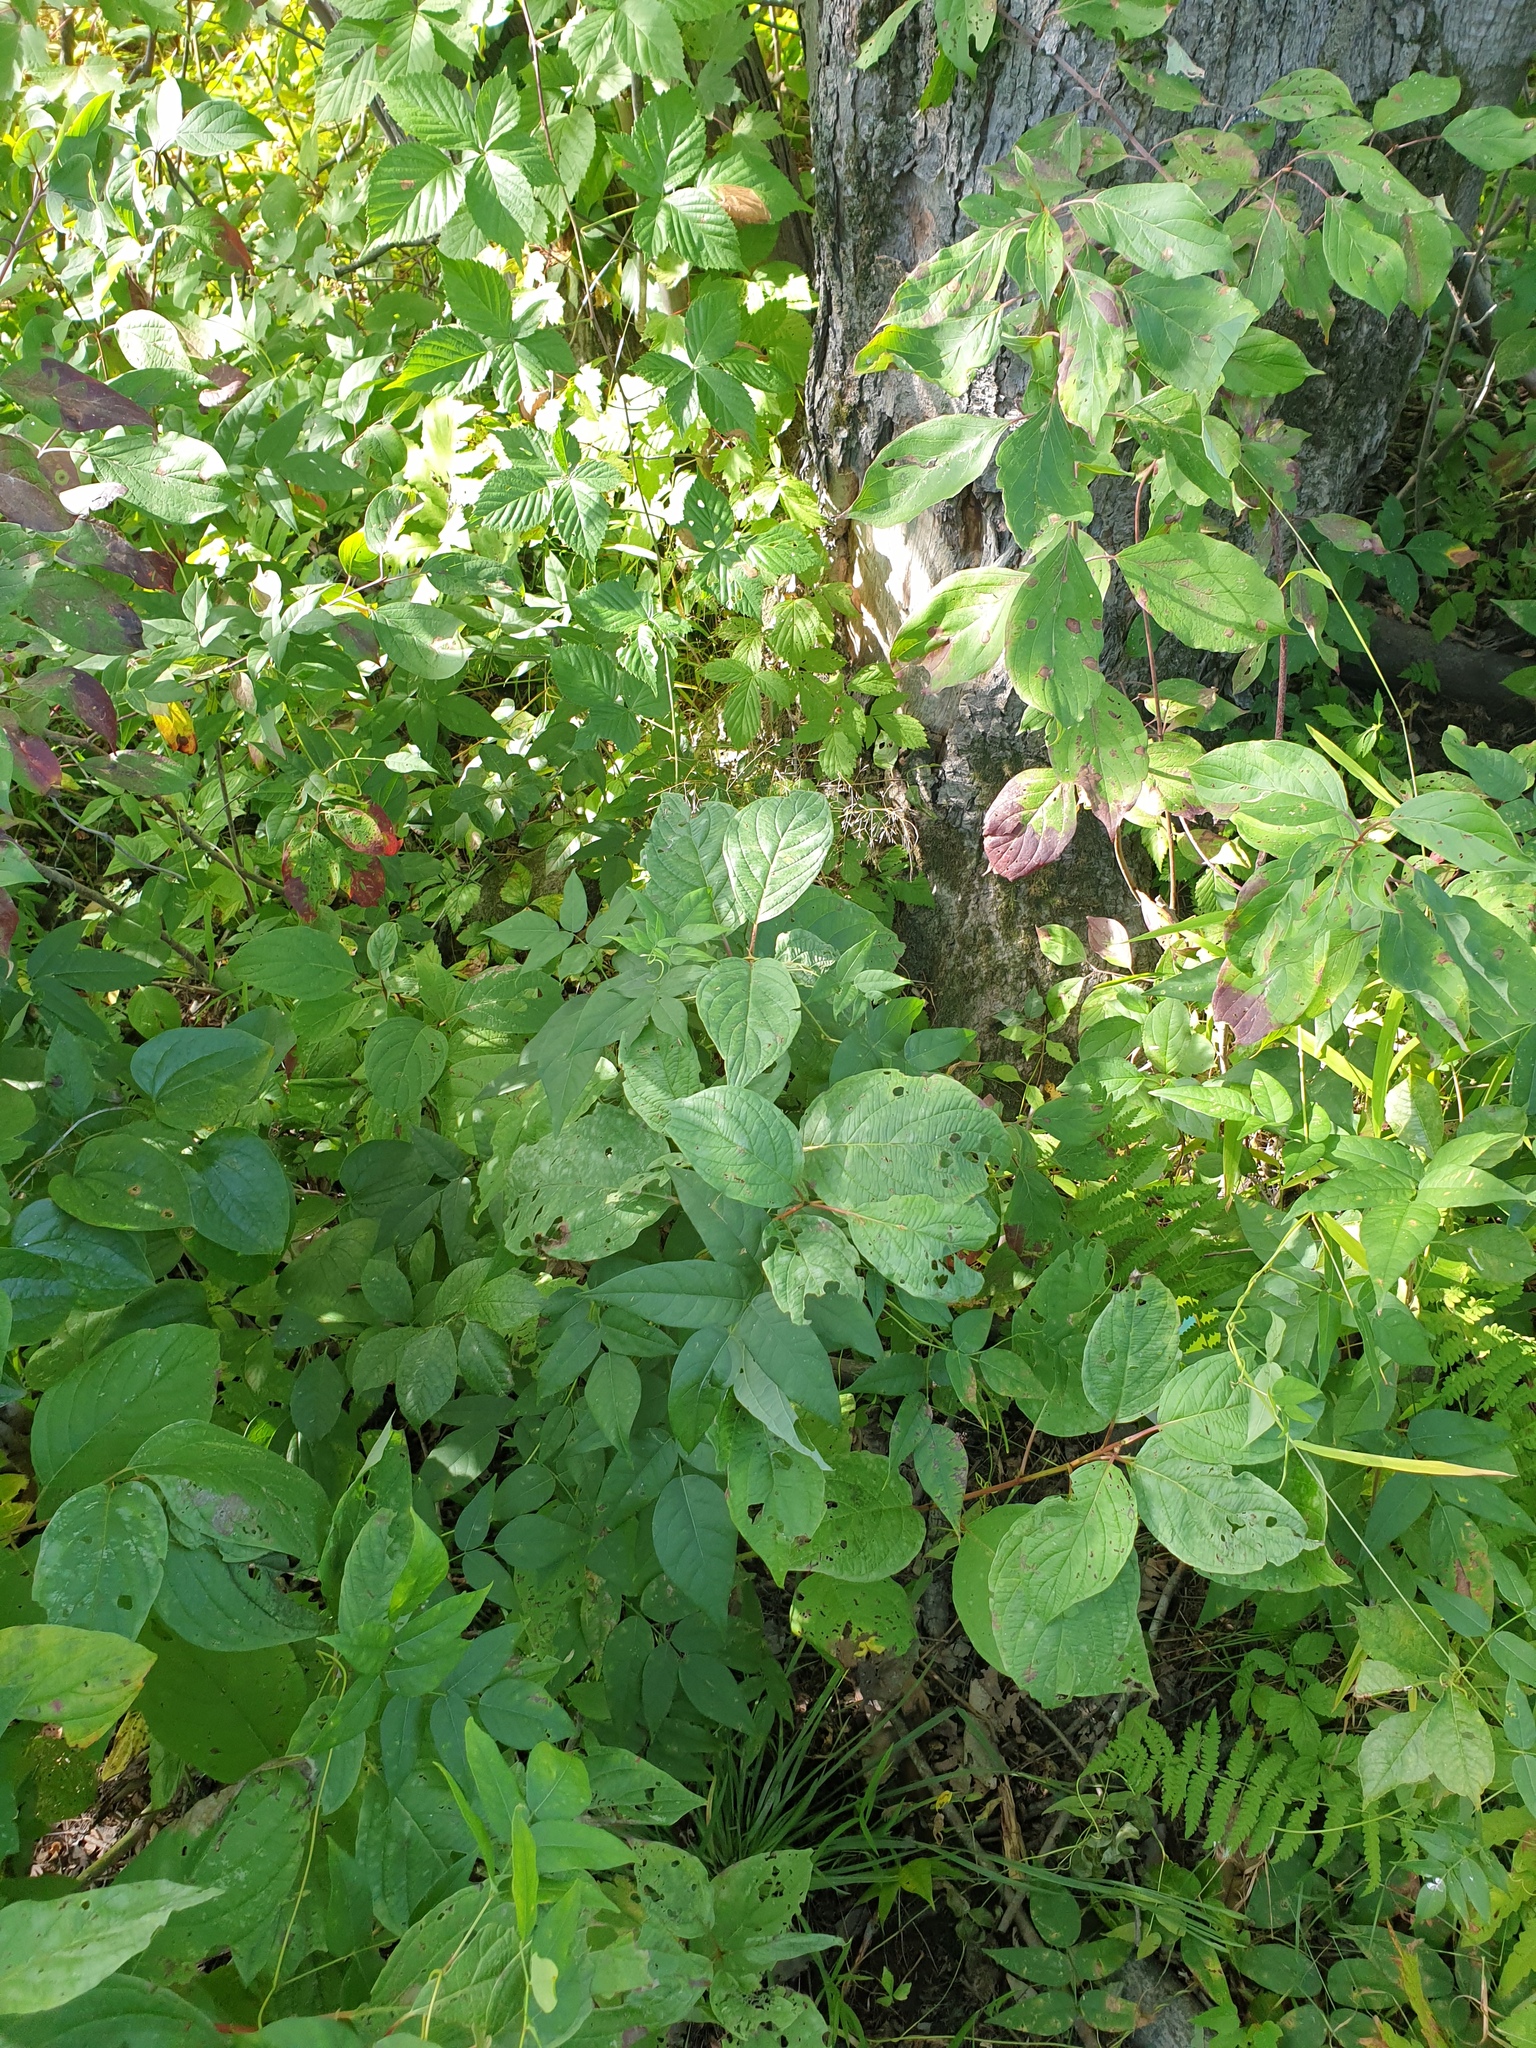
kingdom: Plantae
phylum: Tracheophyta
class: Liliopsida
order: Liliales
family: Smilacaceae
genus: Smilax
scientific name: Smilax herbacea
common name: Jacob's-ladder
